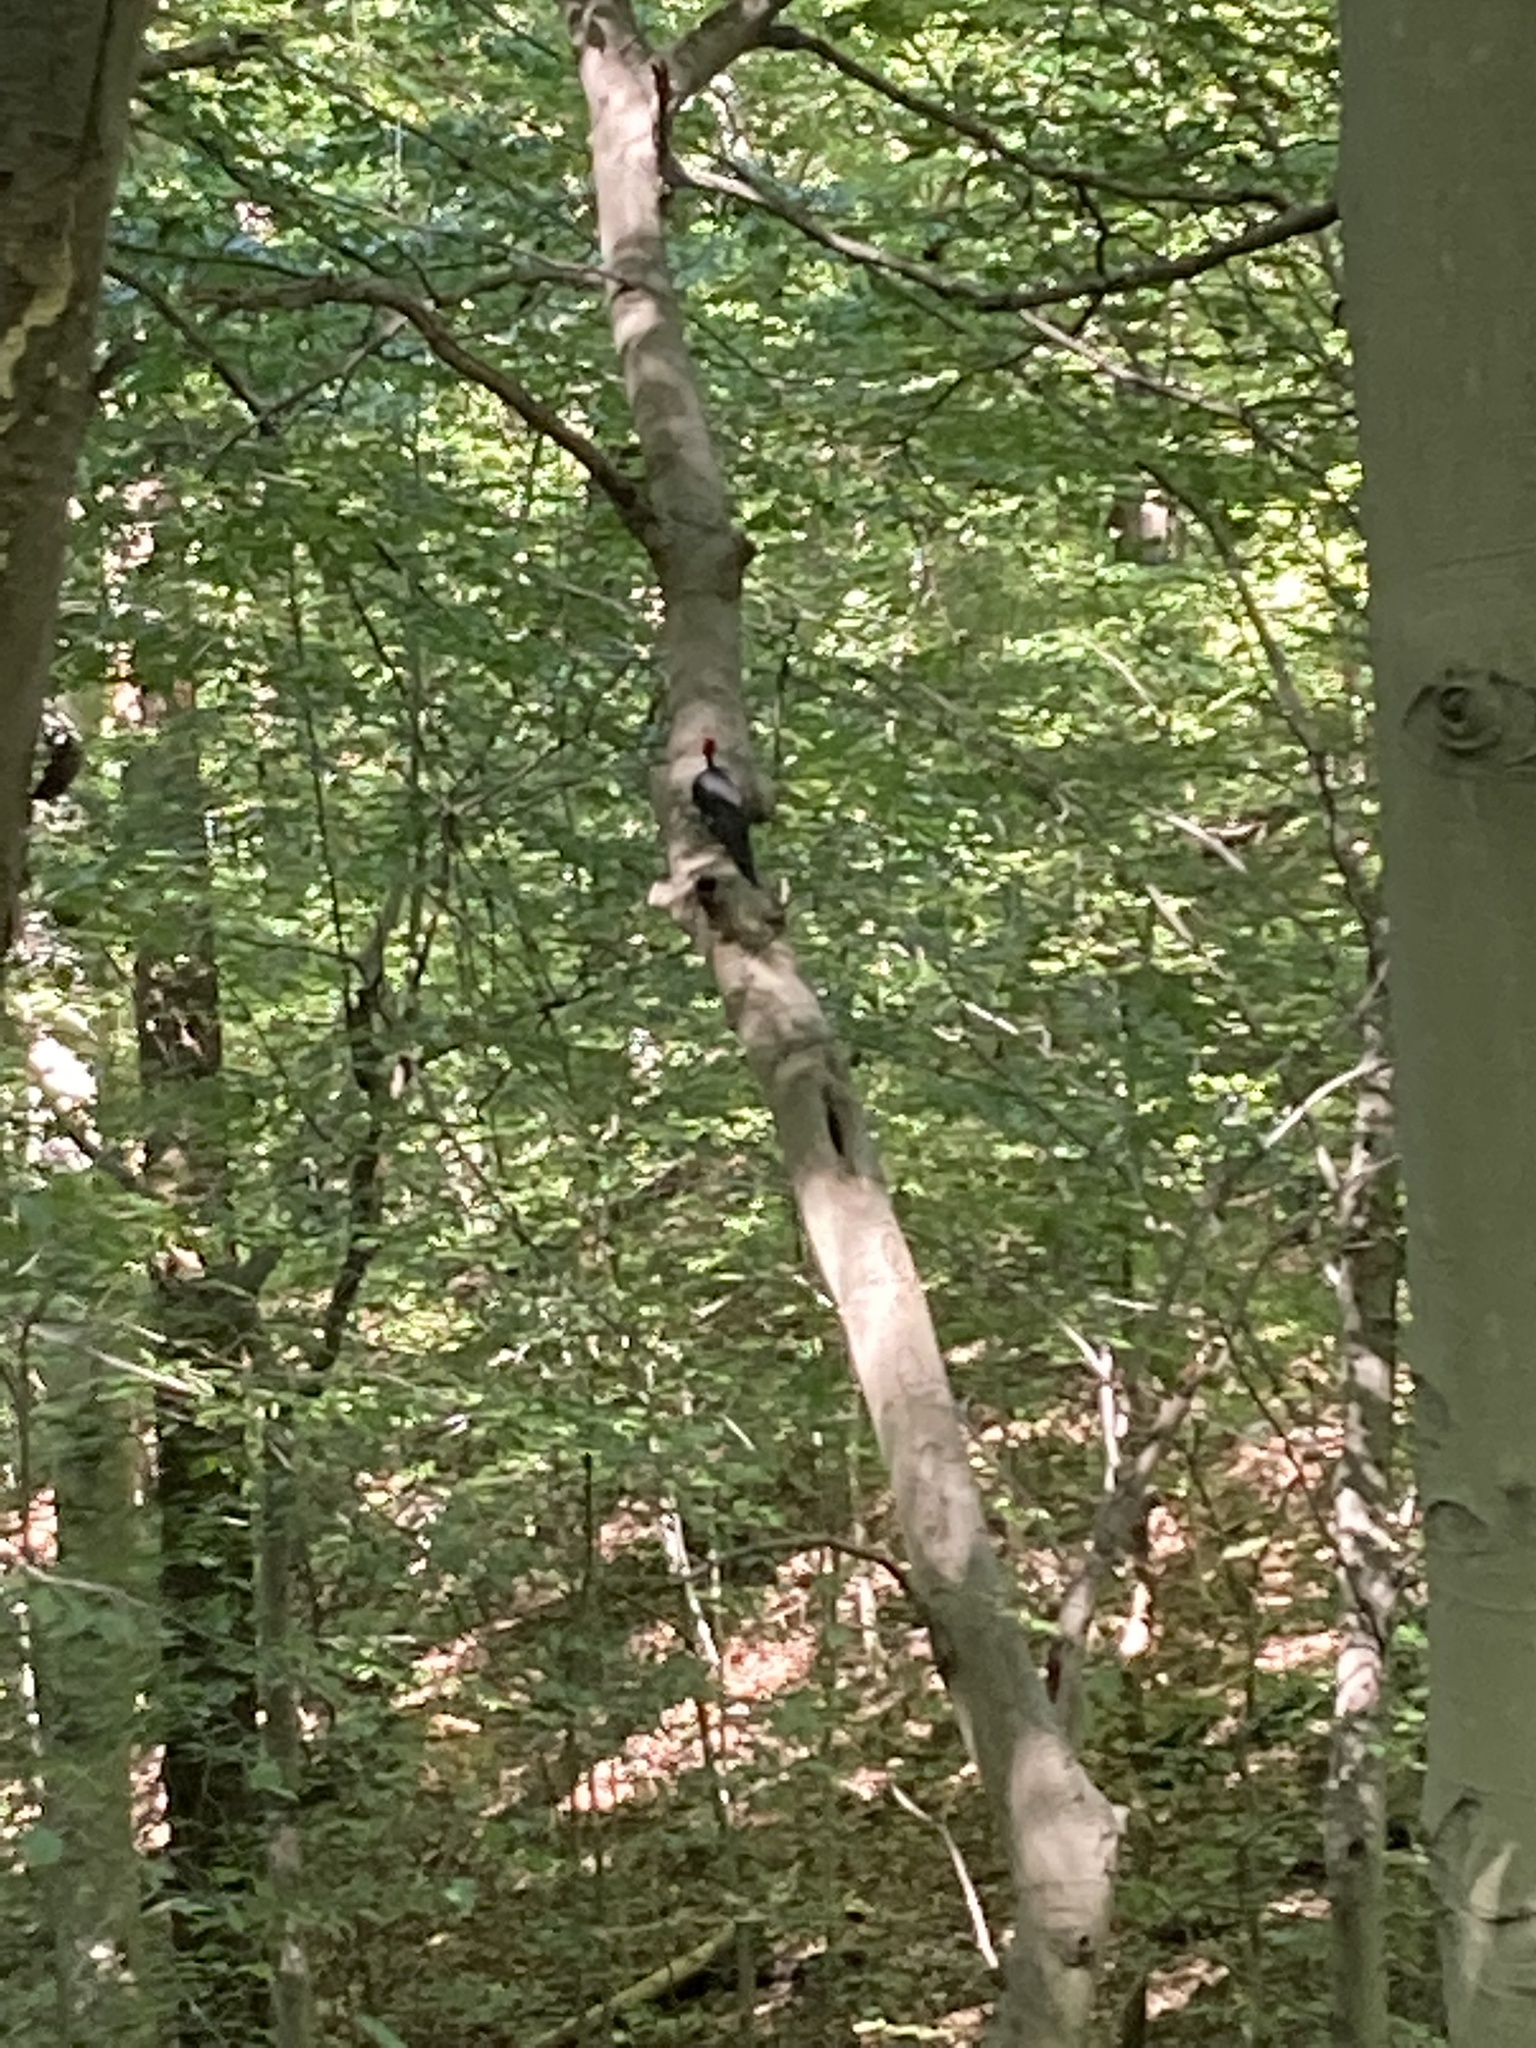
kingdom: Animalia
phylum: Chordata
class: Aves
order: Piciformes
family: Picidae
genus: Dryocopus
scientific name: Dryocopus pileatus
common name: Pileated woodpecker
